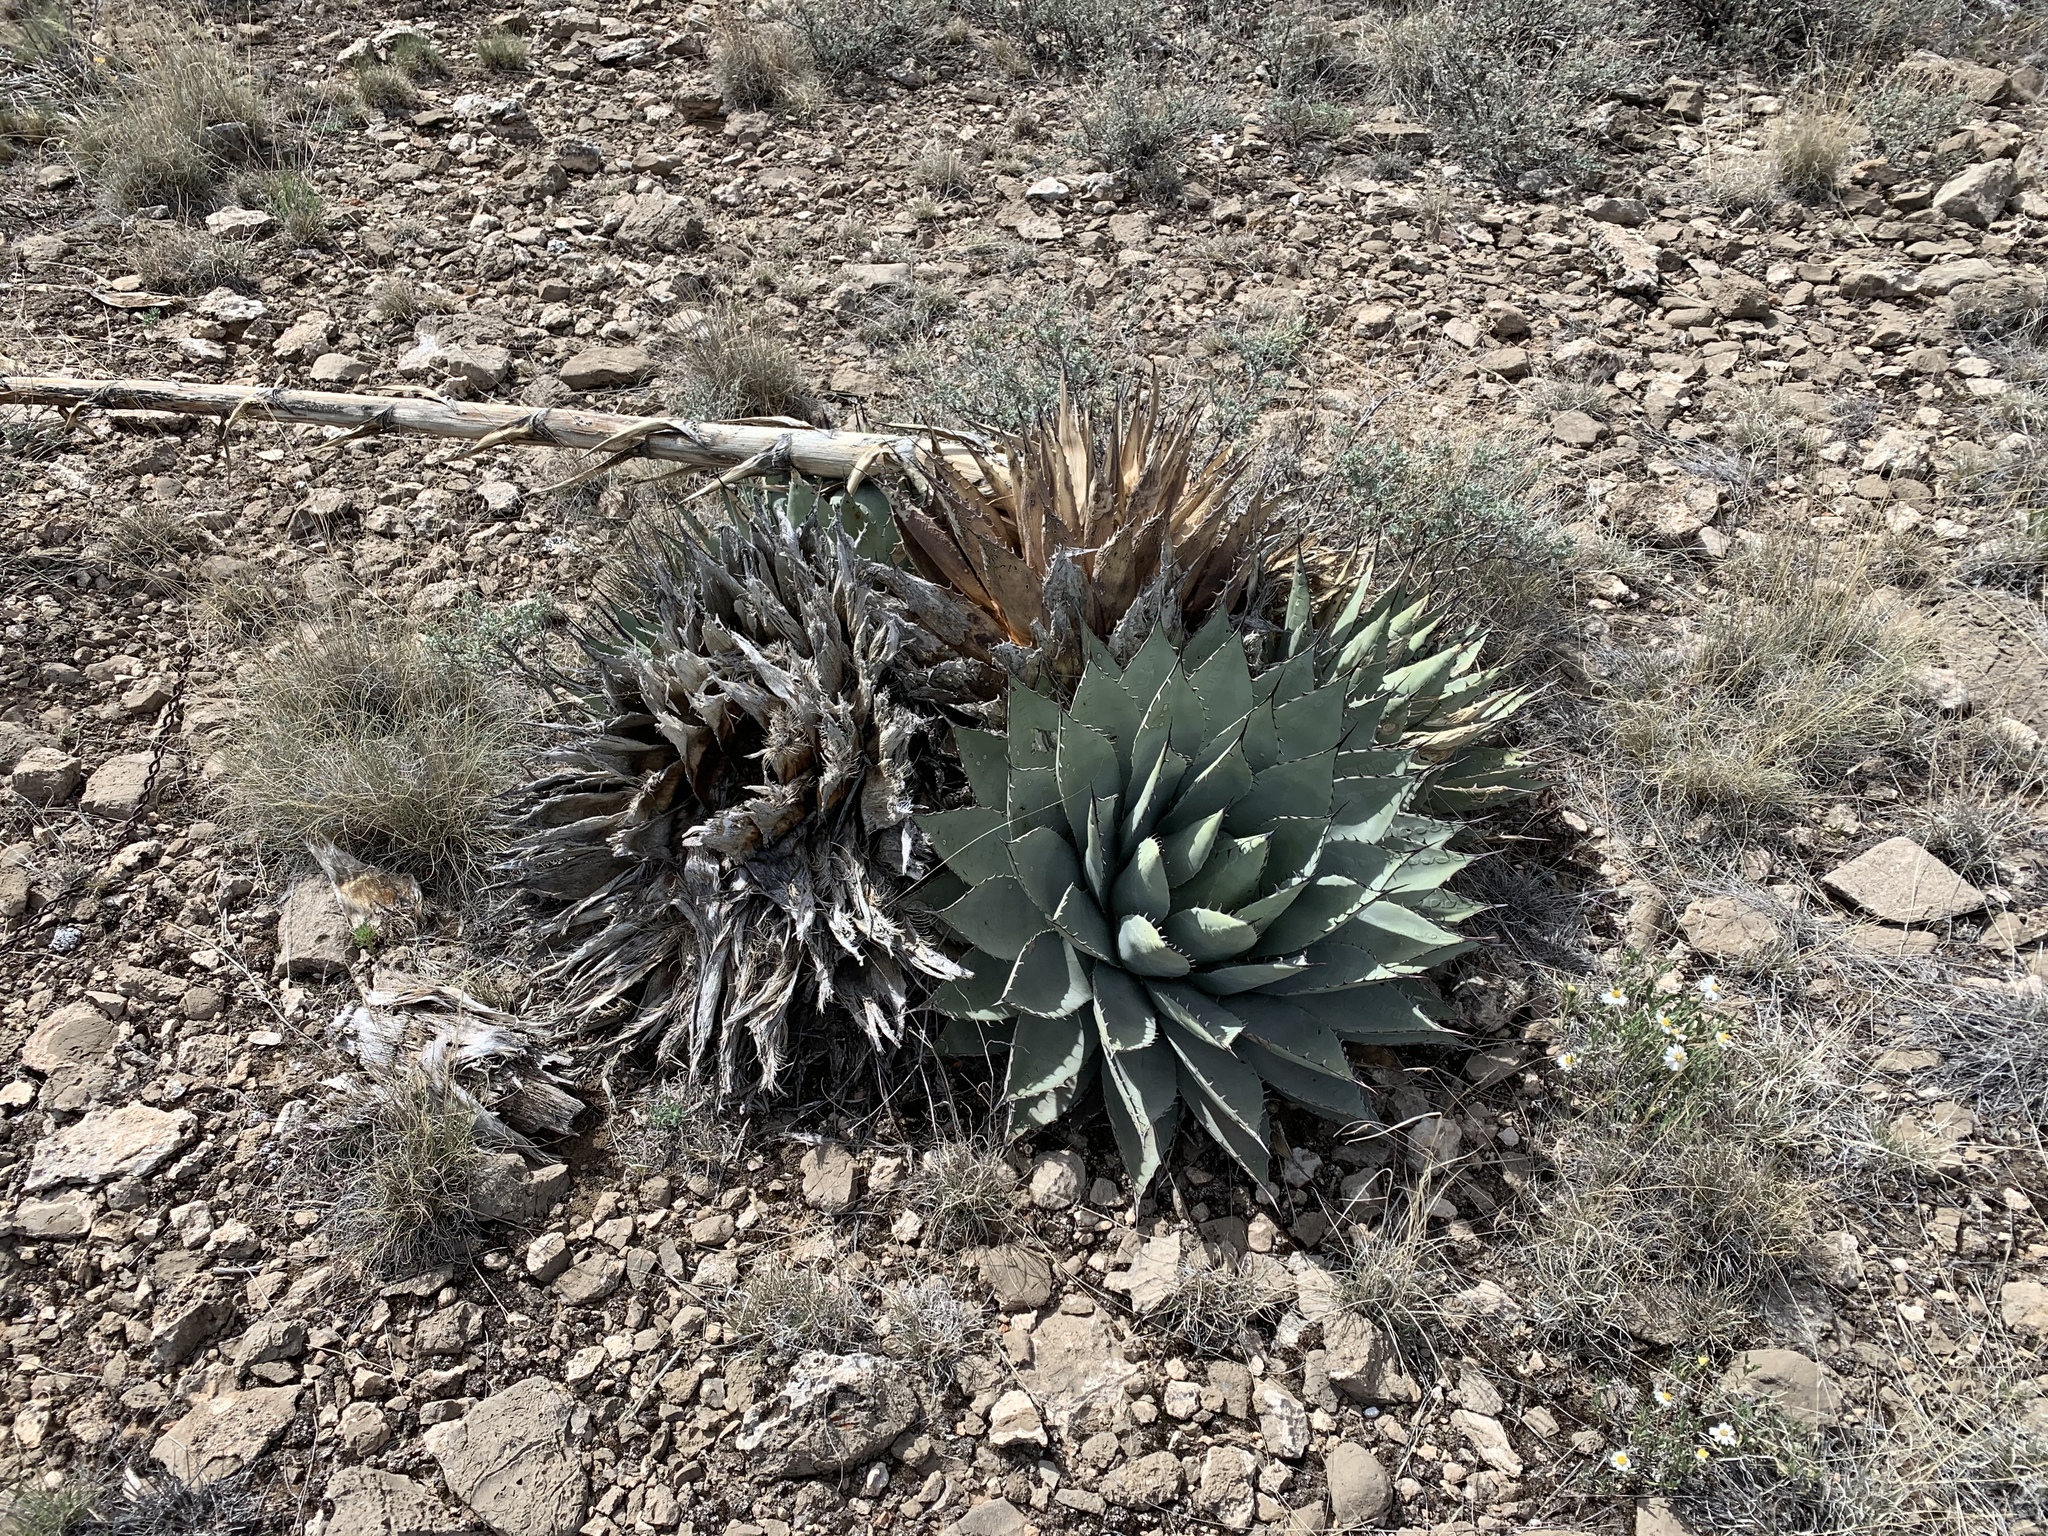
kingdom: Plantae
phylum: Tracheophyta
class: Liliopsida
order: Asparagales
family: Asparagaceae
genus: Agave
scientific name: Agave parryi
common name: Parry's agave
